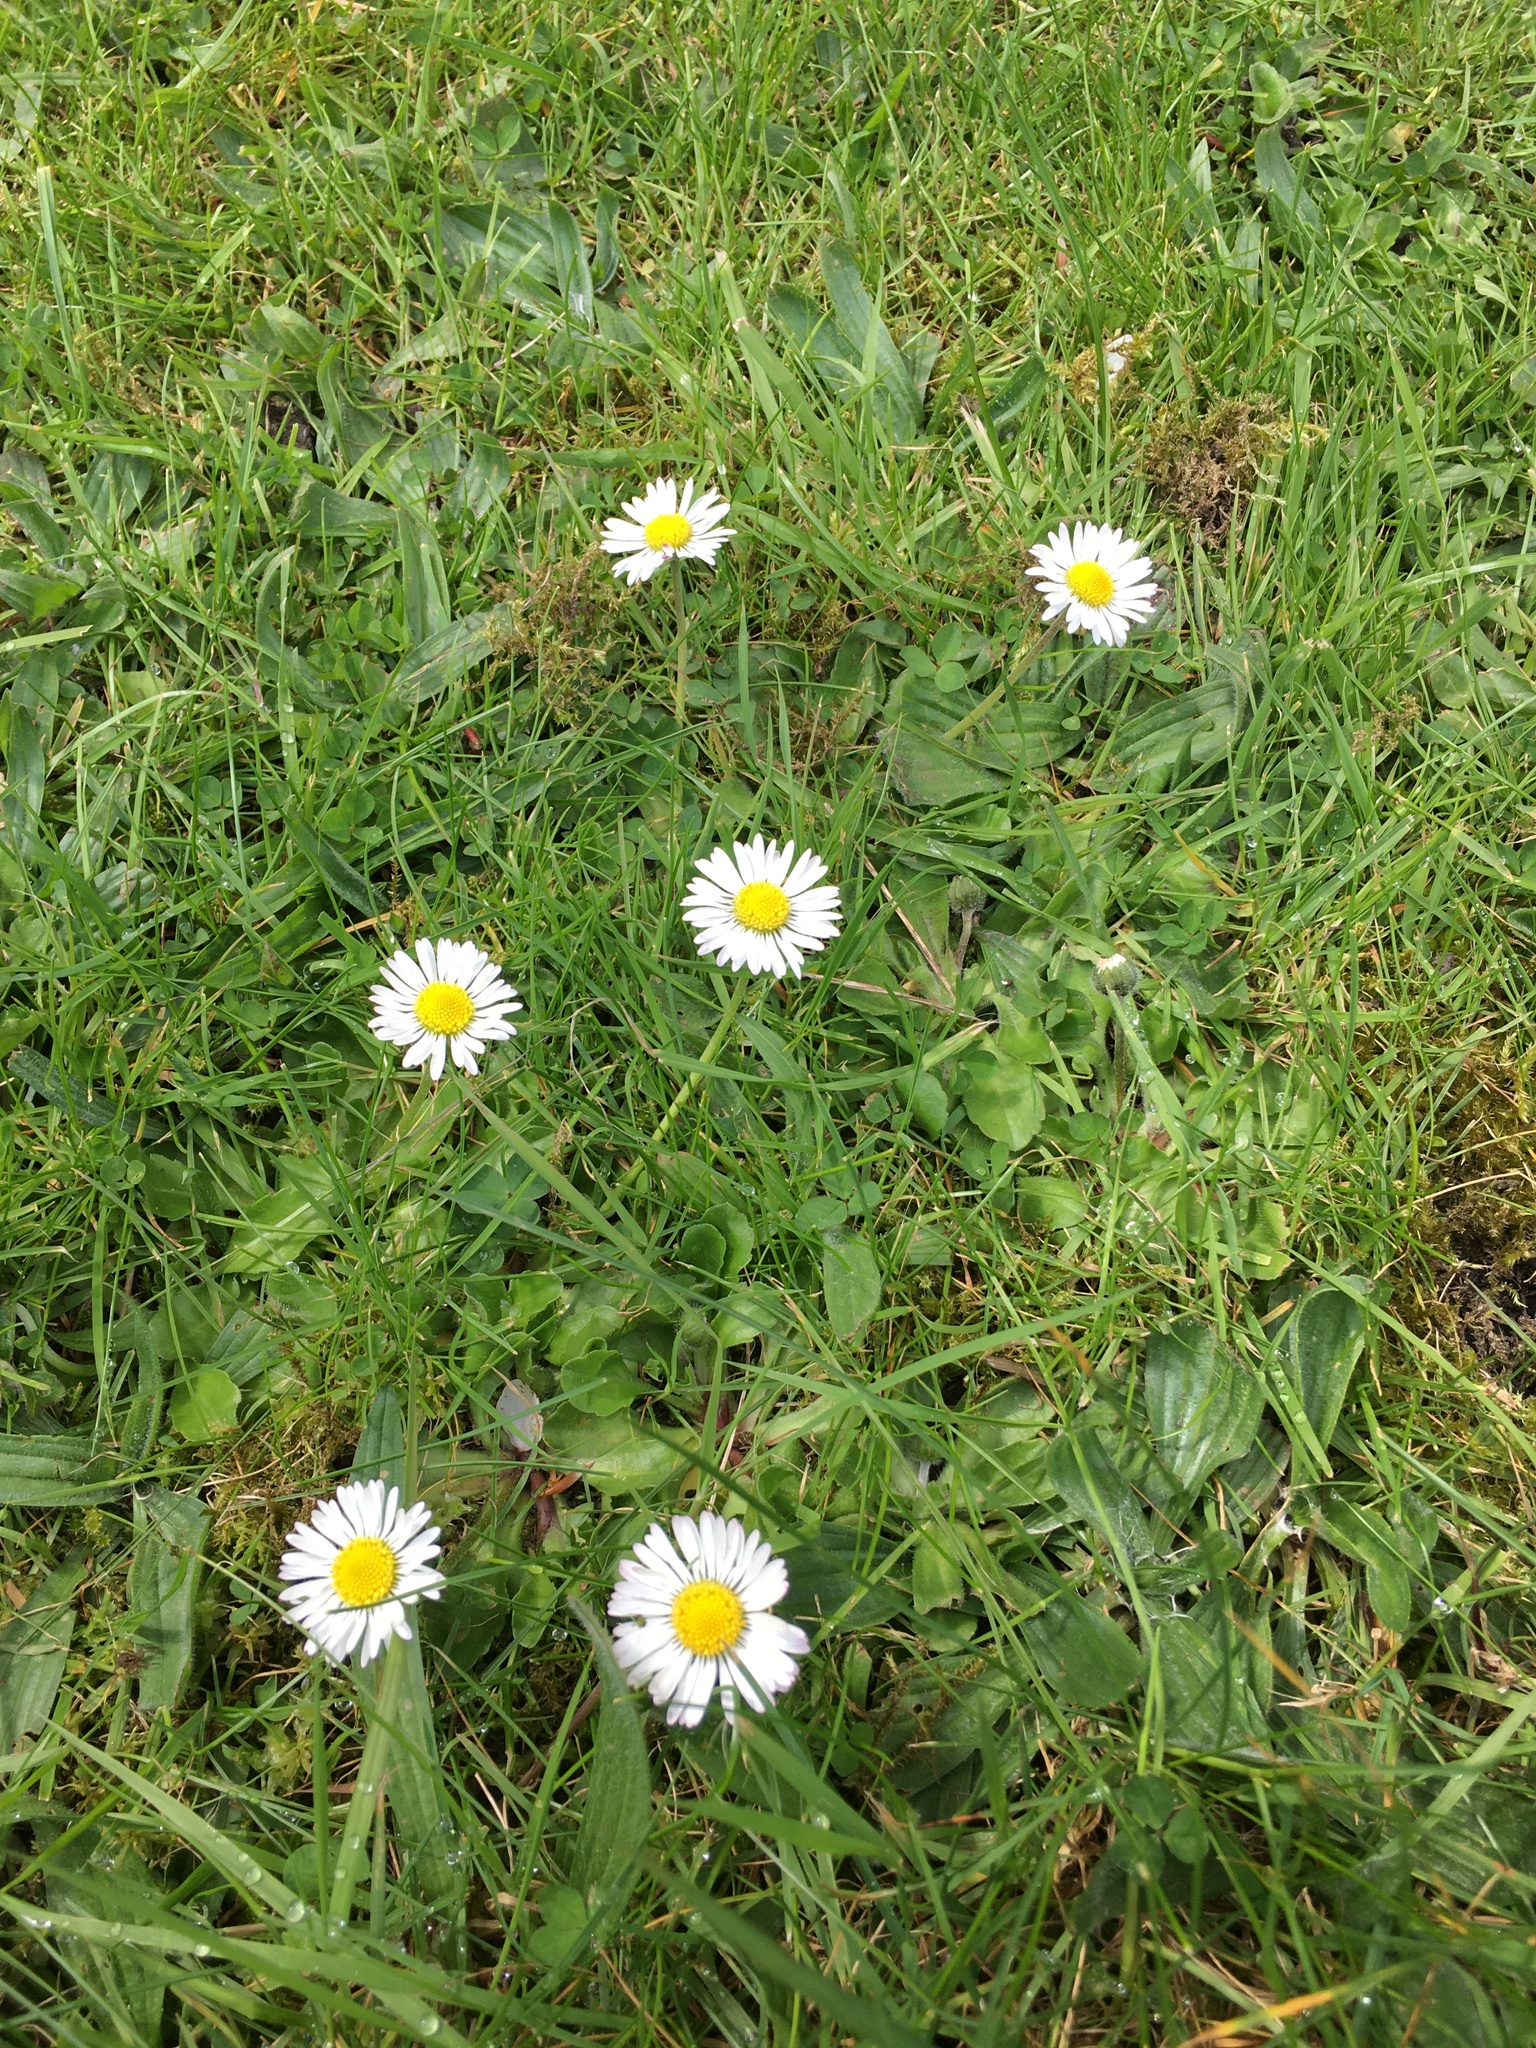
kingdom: Plantae
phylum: Tracheophyta
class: Magnoliopsida
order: Asterales
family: Asteraceae
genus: Bellis
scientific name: Bellis perennis
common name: Lawndaisy
